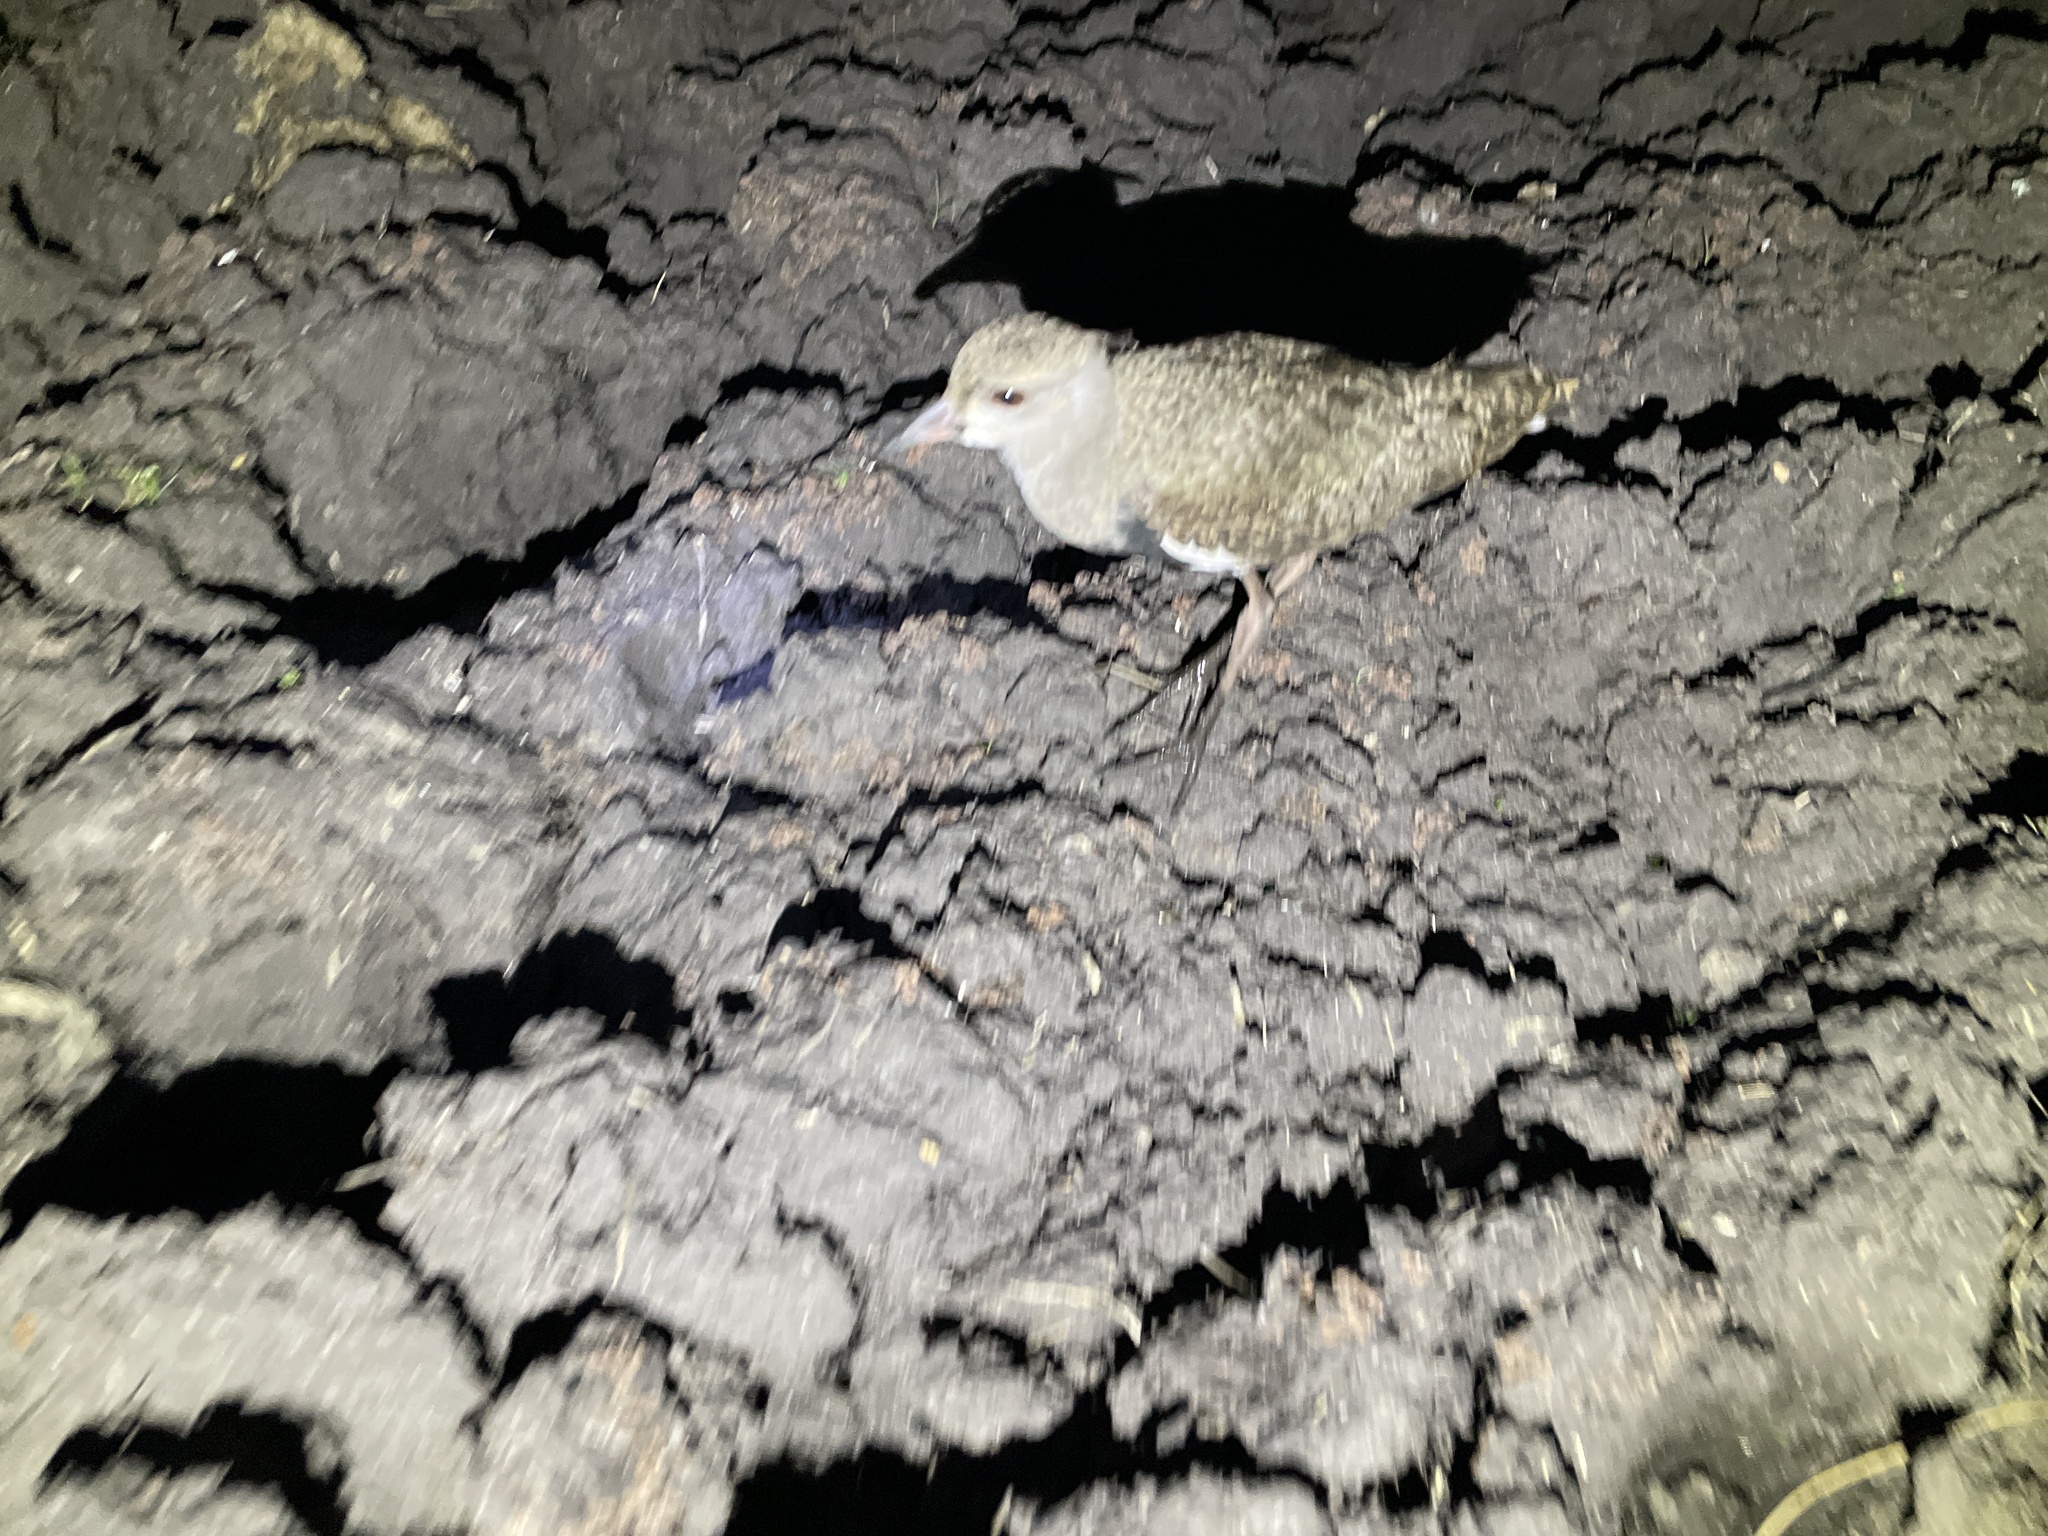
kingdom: Animalia
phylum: Chordata
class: Aves
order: Charadriiformes
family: Charadriidae
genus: Vanellus
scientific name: Vanellus chilensis
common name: Southern lapwing
